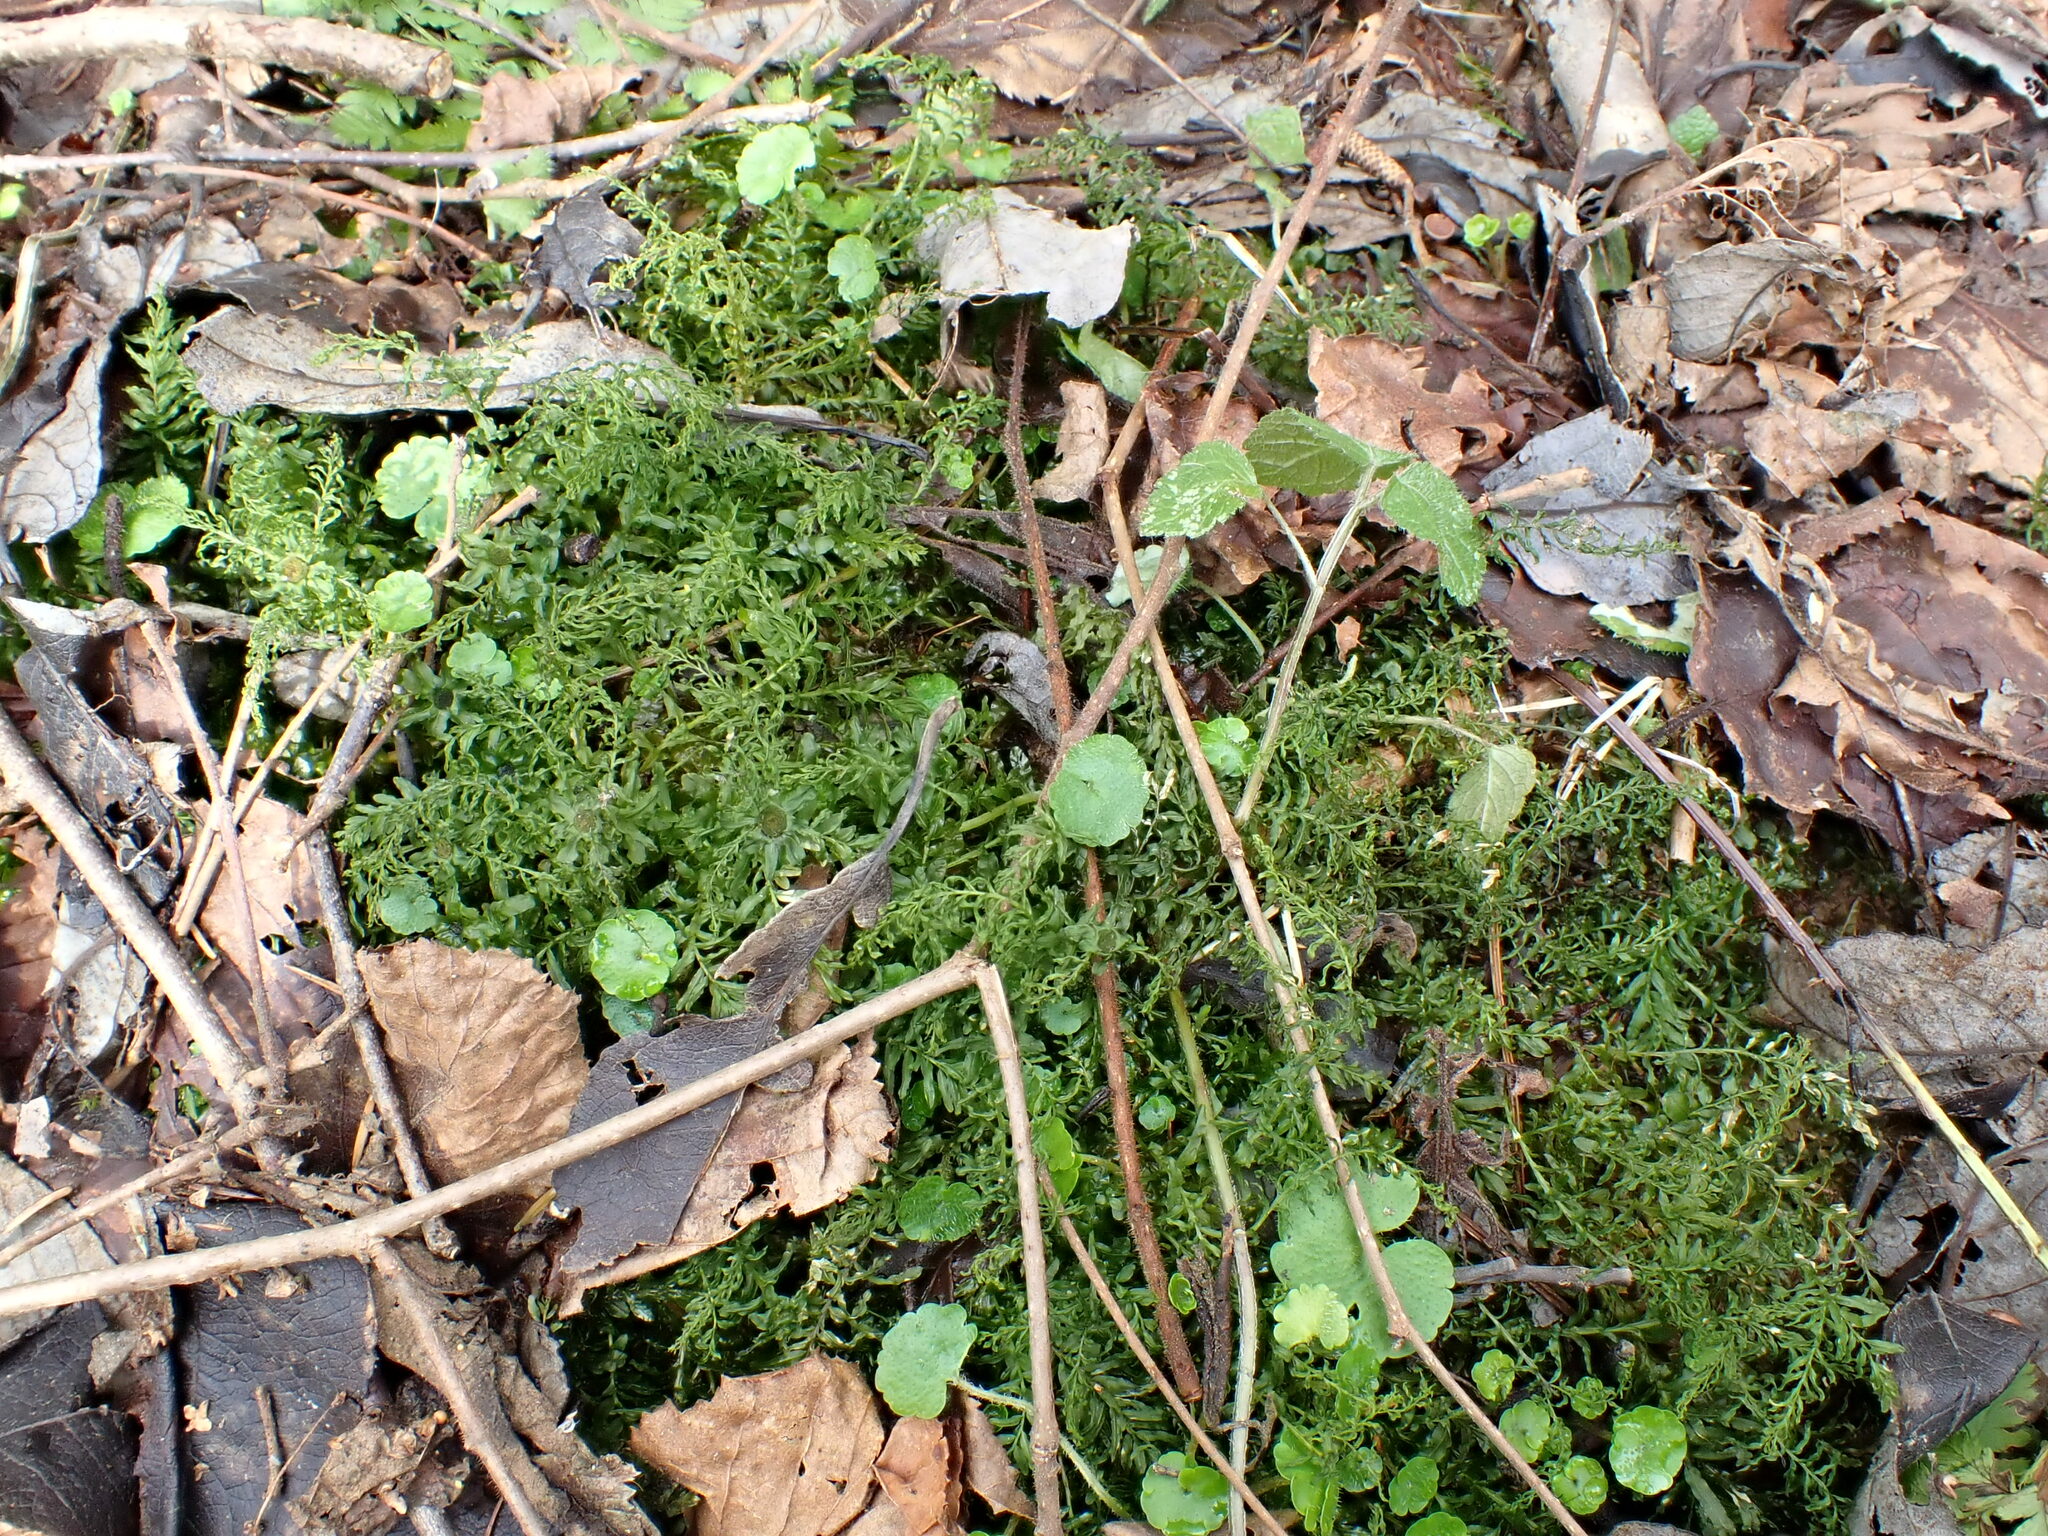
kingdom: Plantae
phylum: Bryophyta
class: Bryopsida
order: Bryales
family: Mniaceae
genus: Plagiomnium
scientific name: Plagiomnium undulatum
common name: Hart's-tongue thyme-moss
